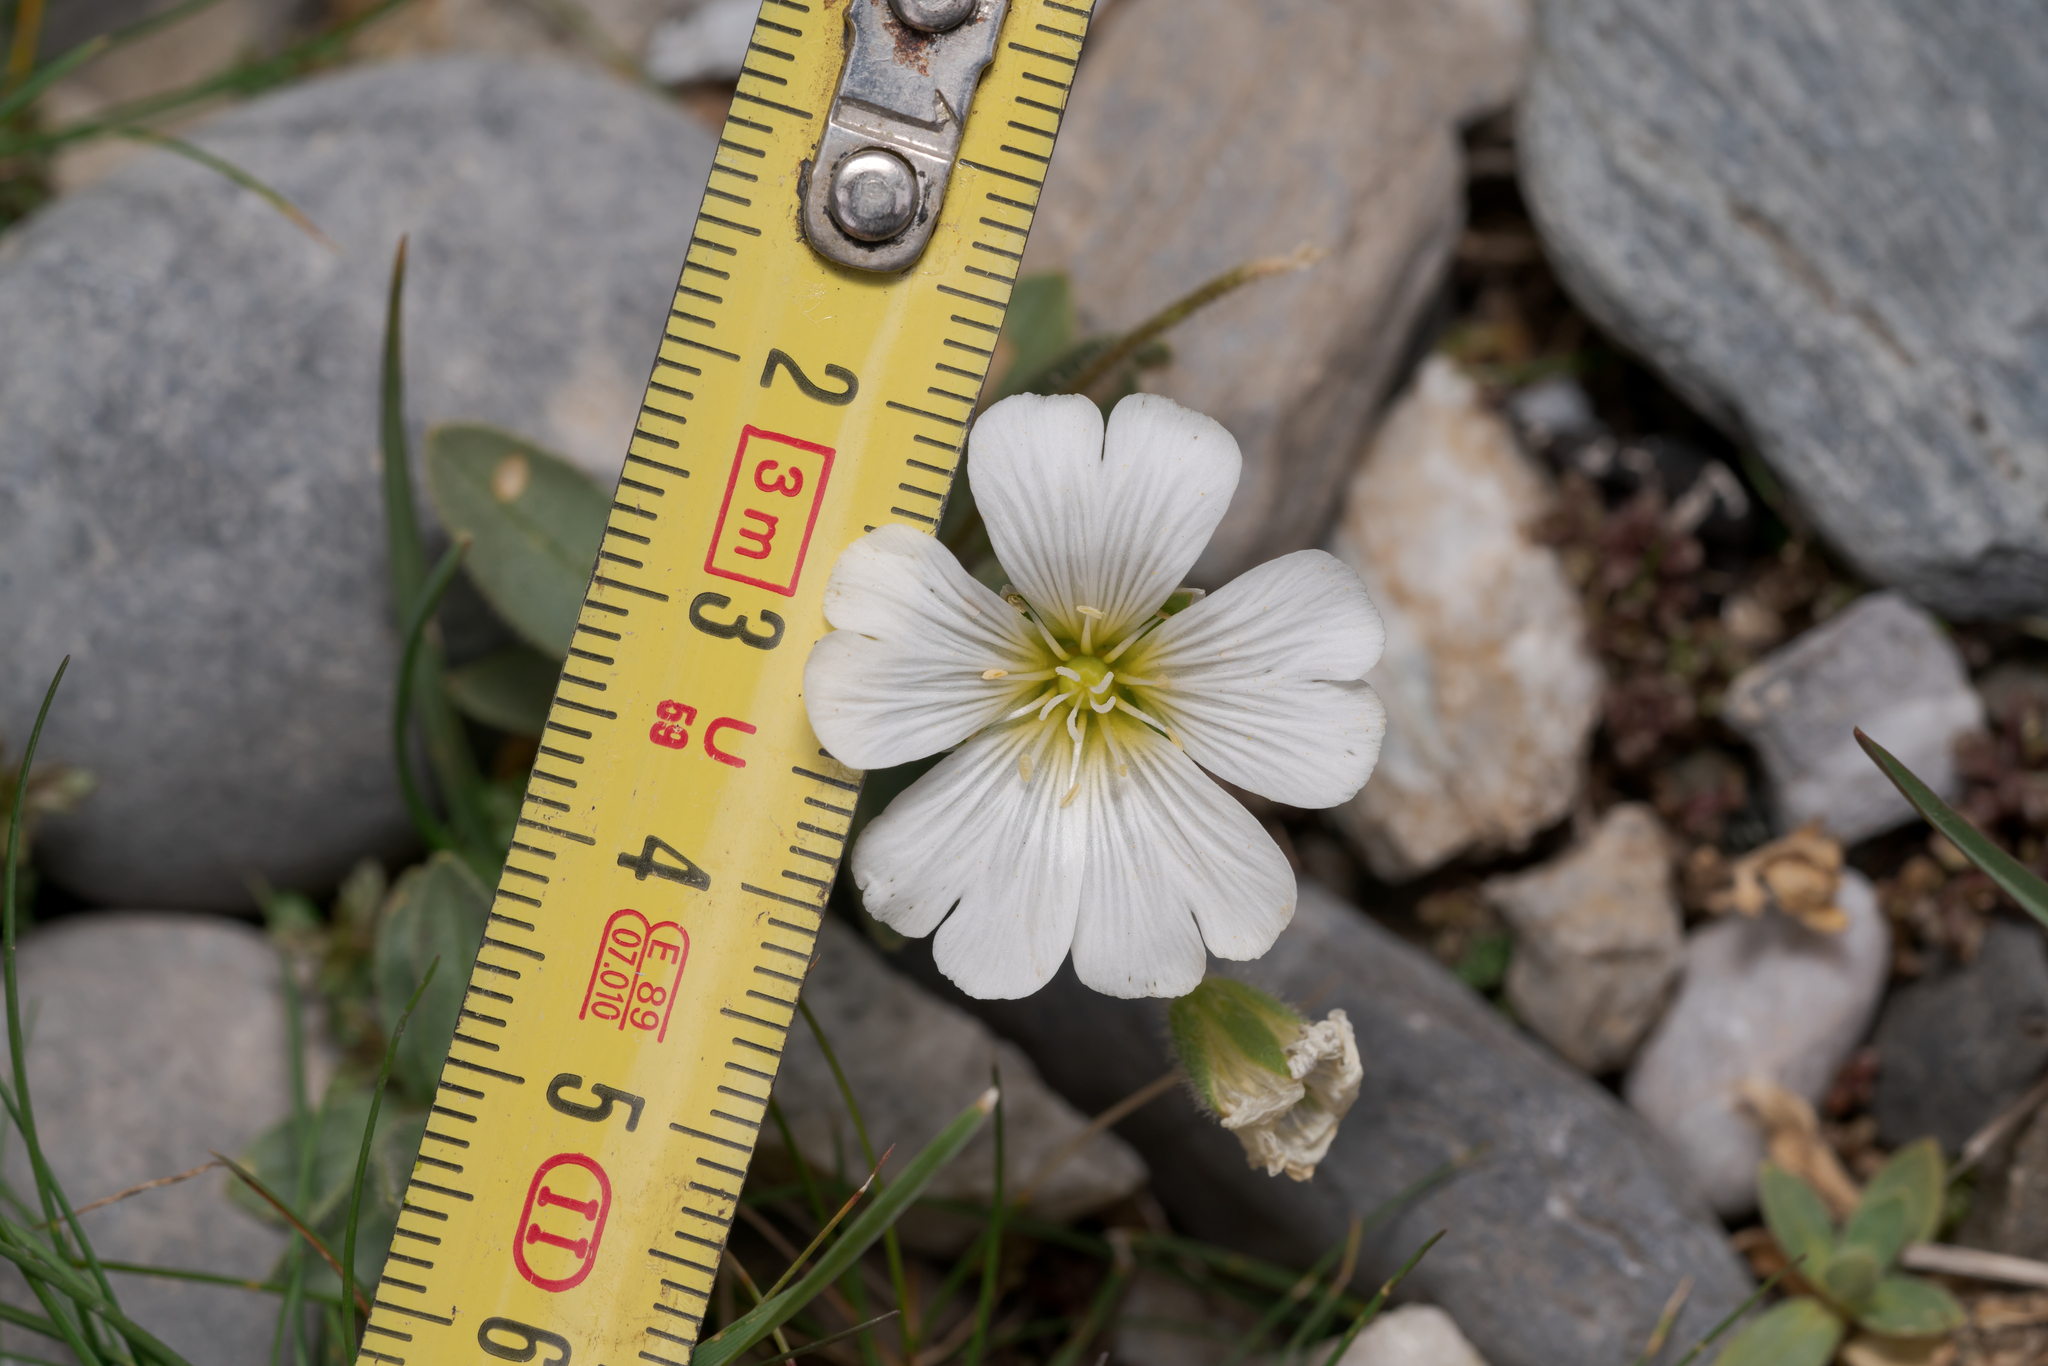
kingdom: Plantae
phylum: Tracheophyta
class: Magnoliopsida
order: Caryophyllales
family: Caryophyllaceae
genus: Cerastium
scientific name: Cerastium latifolium
